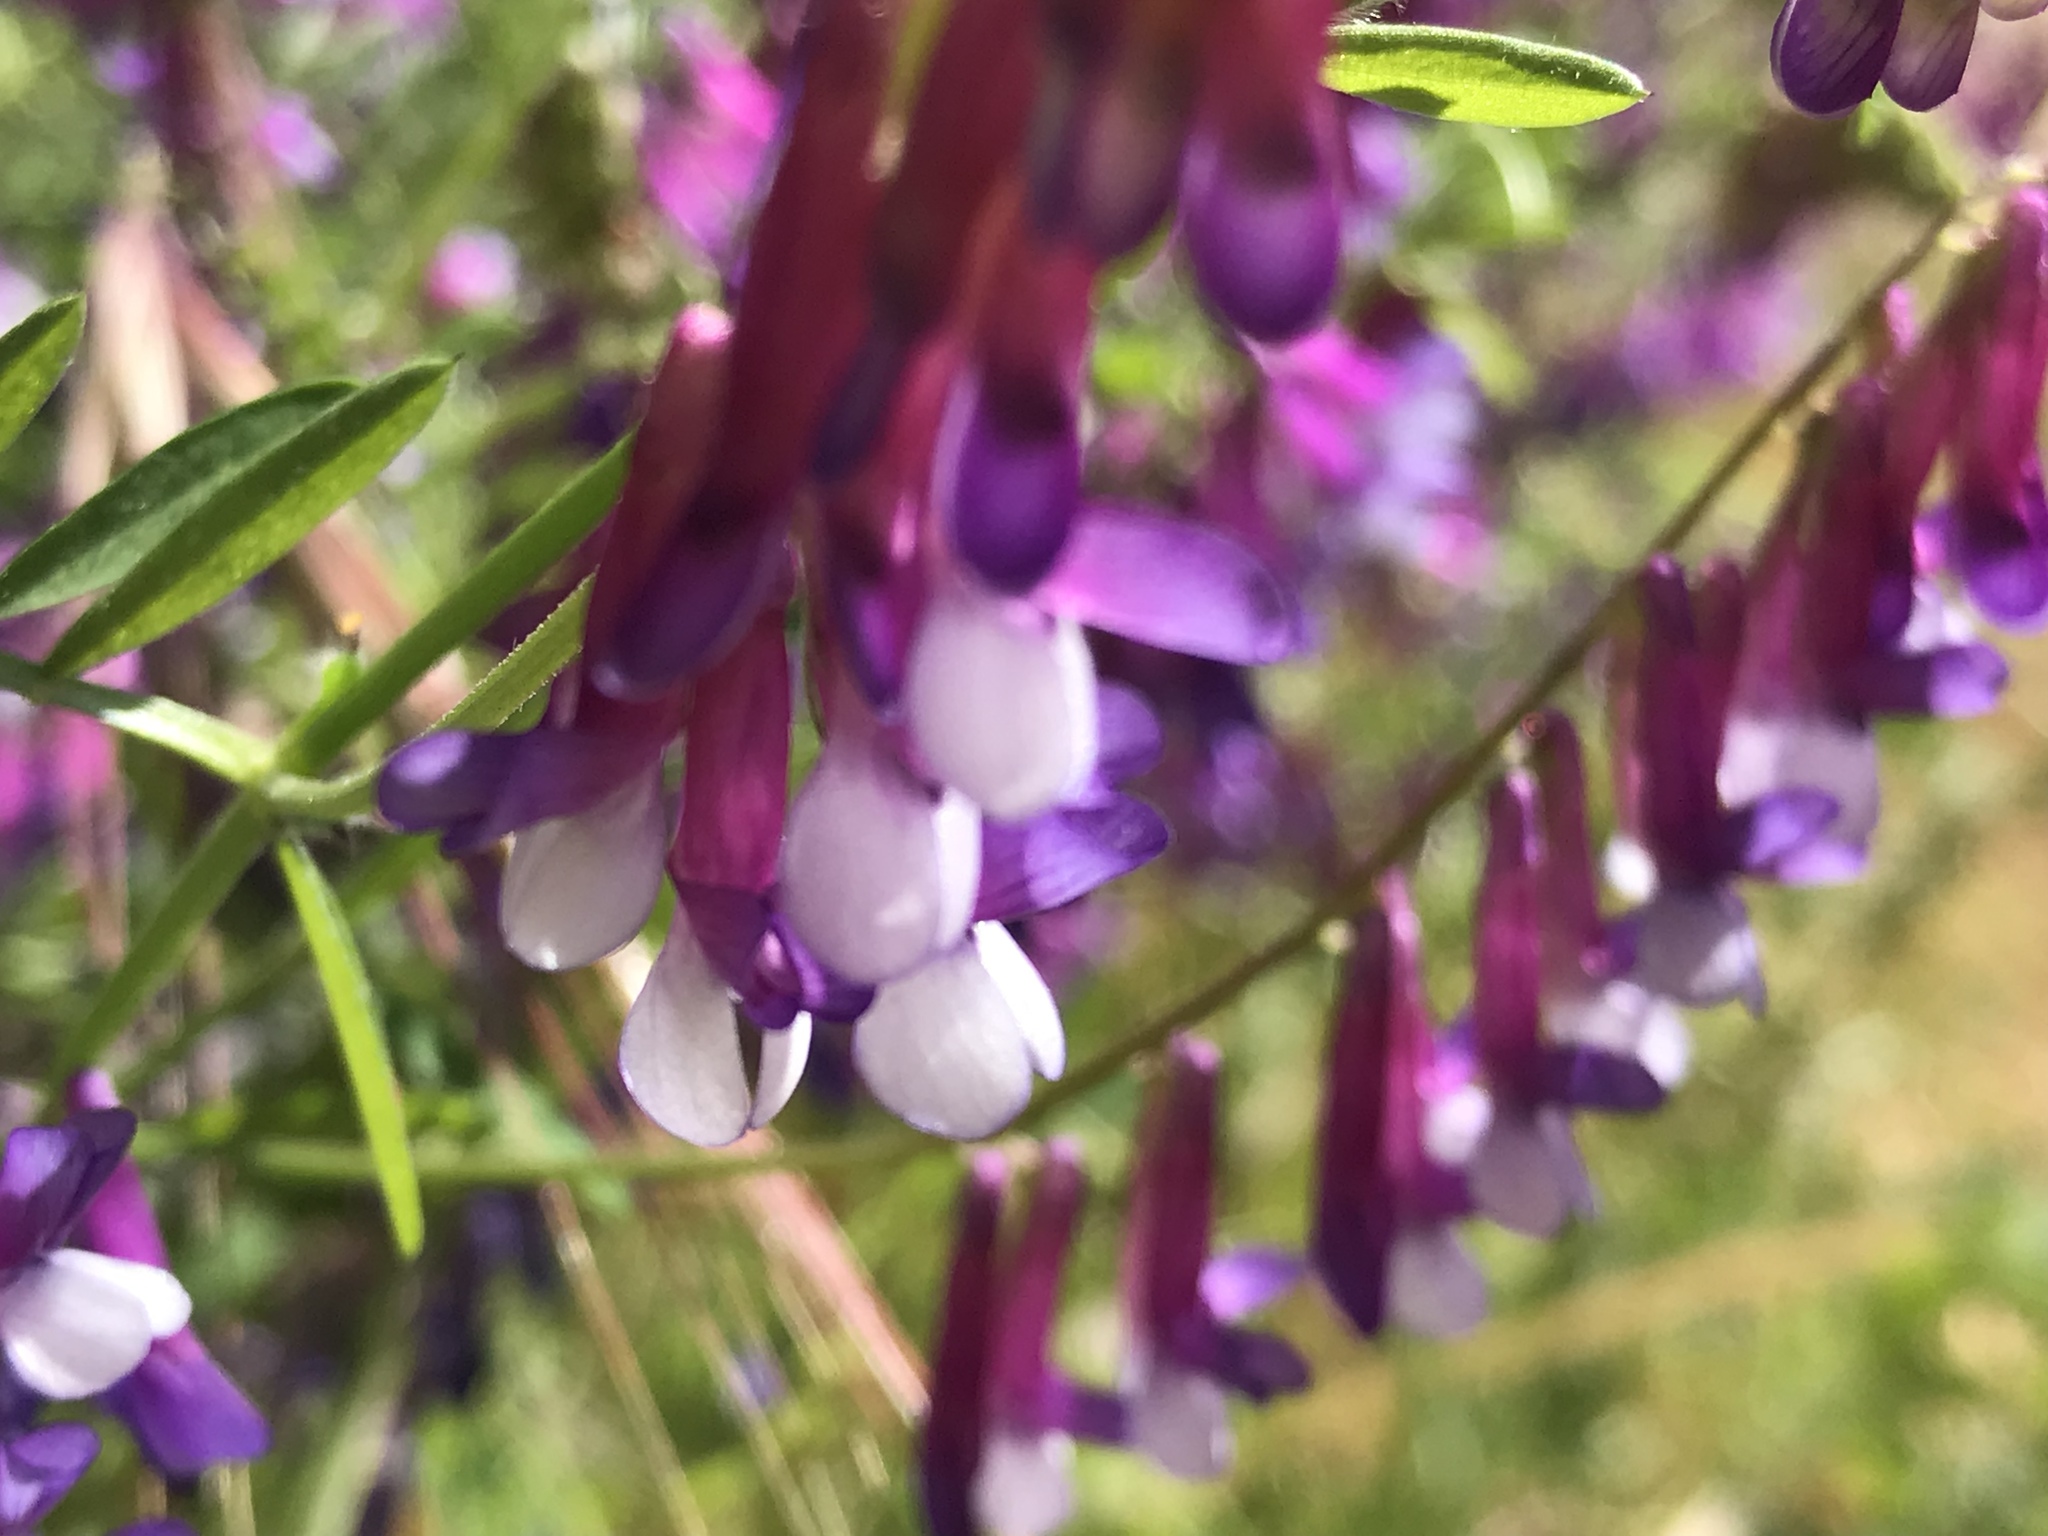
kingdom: Plantae
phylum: Tracheophyta
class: Magnoliopsida
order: Fabales
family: Fabaceae
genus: Vicia
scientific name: Vicia villosa
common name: Fodder vetch
